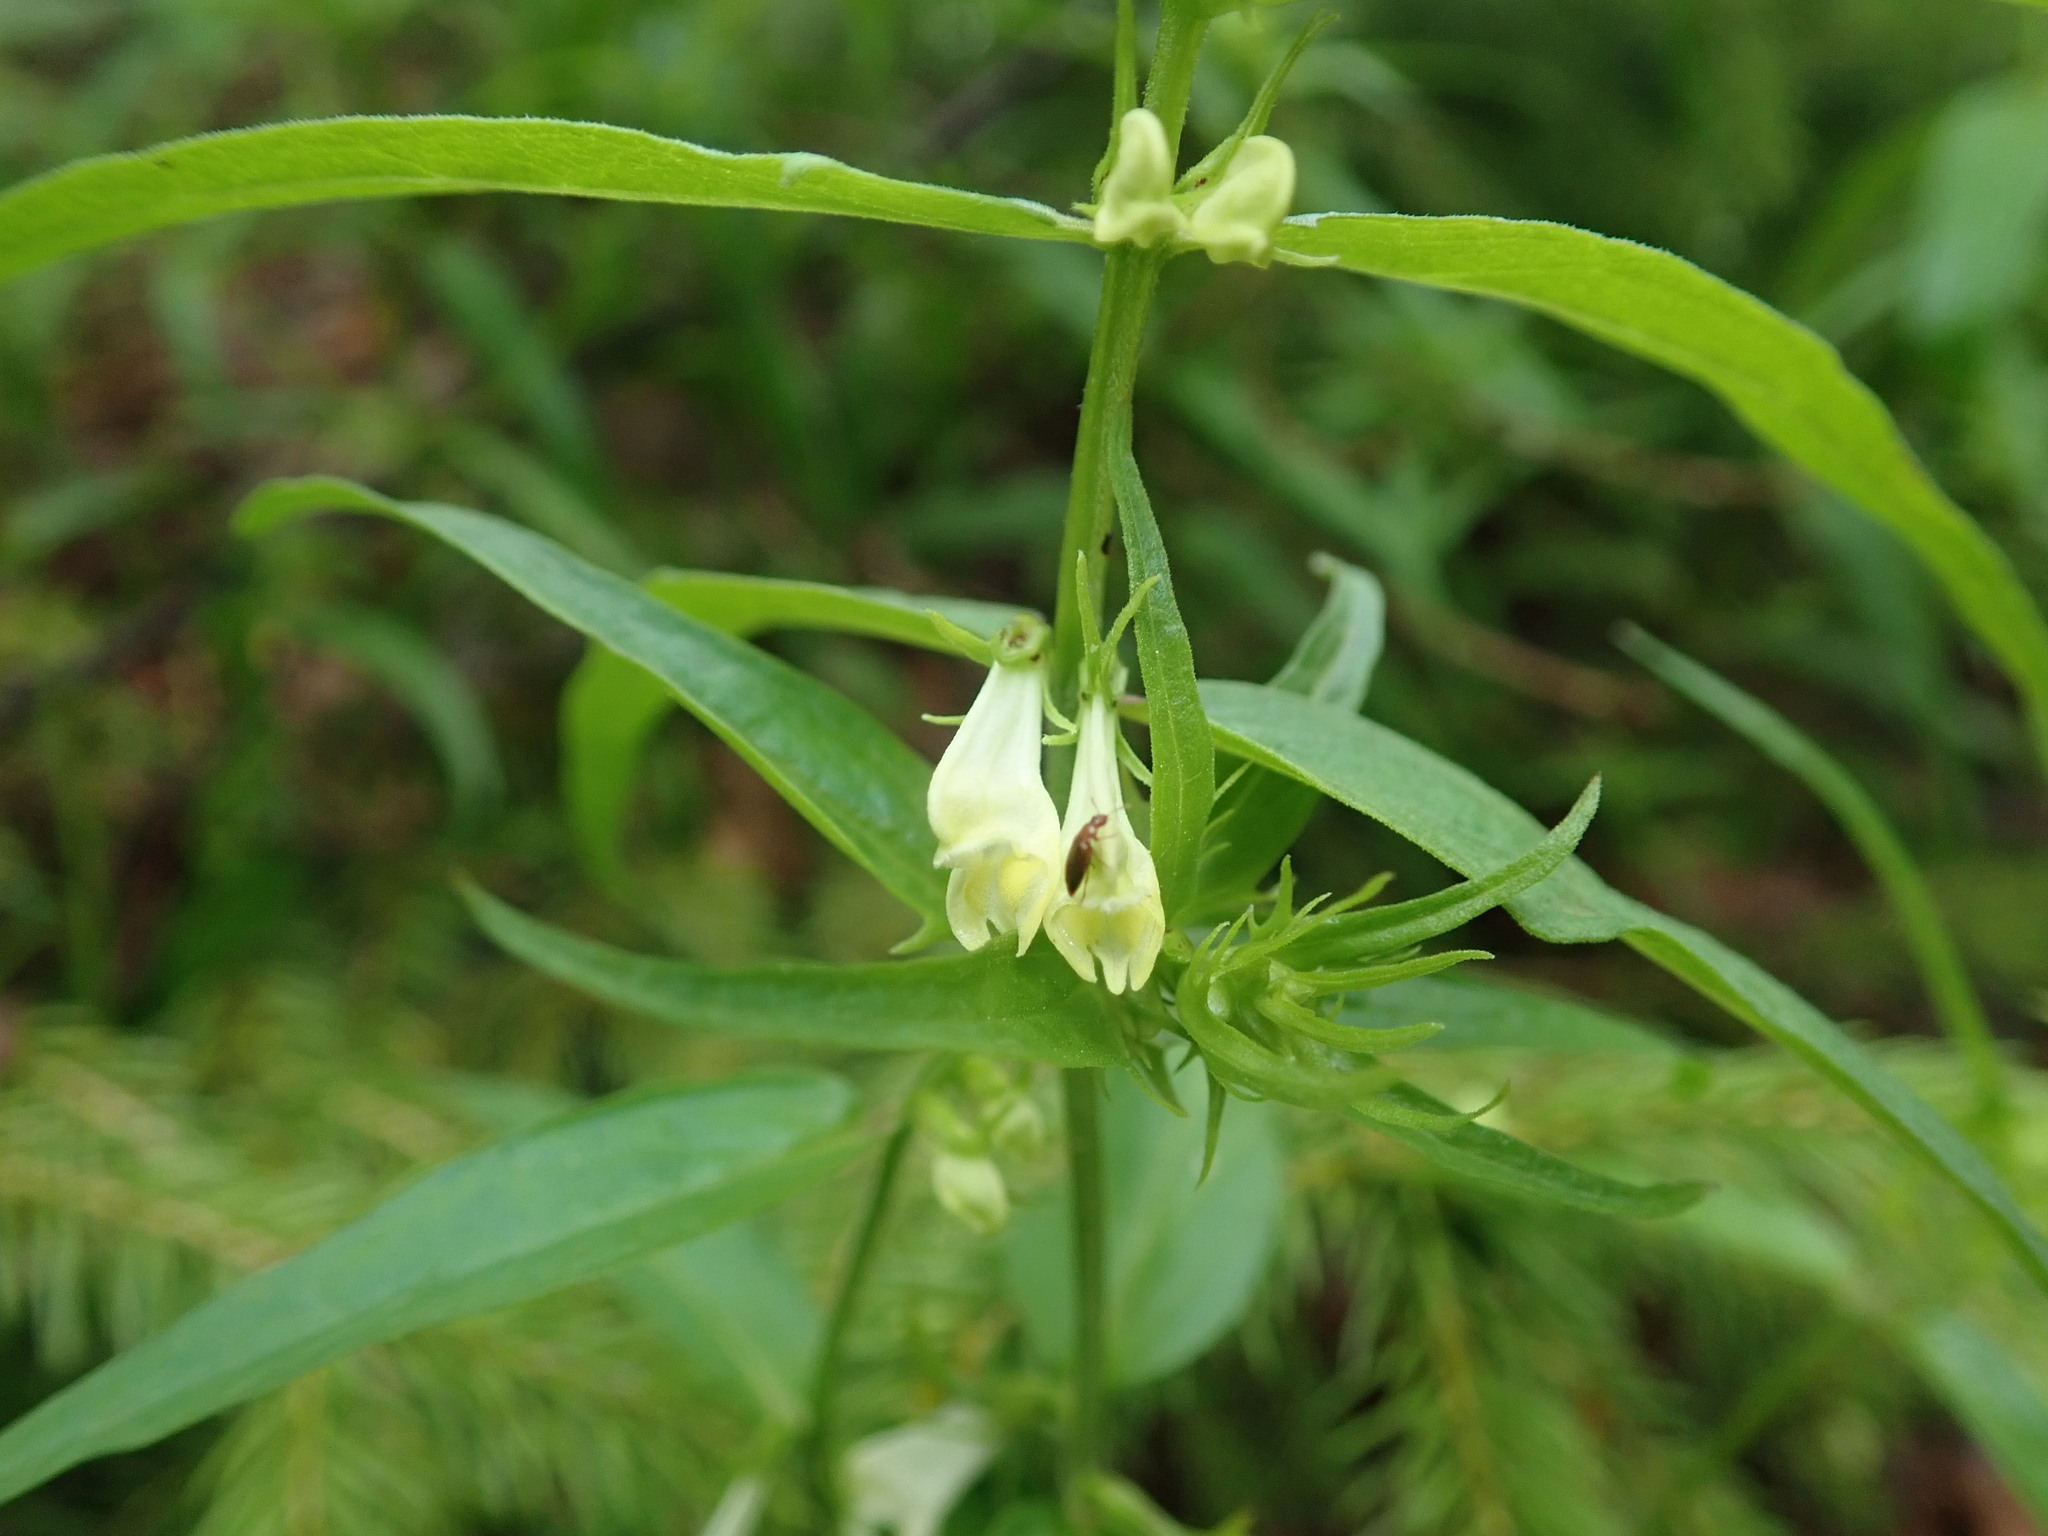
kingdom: Plantae
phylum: Tracheophyta
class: Magnoliopsida
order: Lamiales
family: Orobanchaceae
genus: Melampyrum
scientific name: Melampyrum pratense
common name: Common cow-wheat
